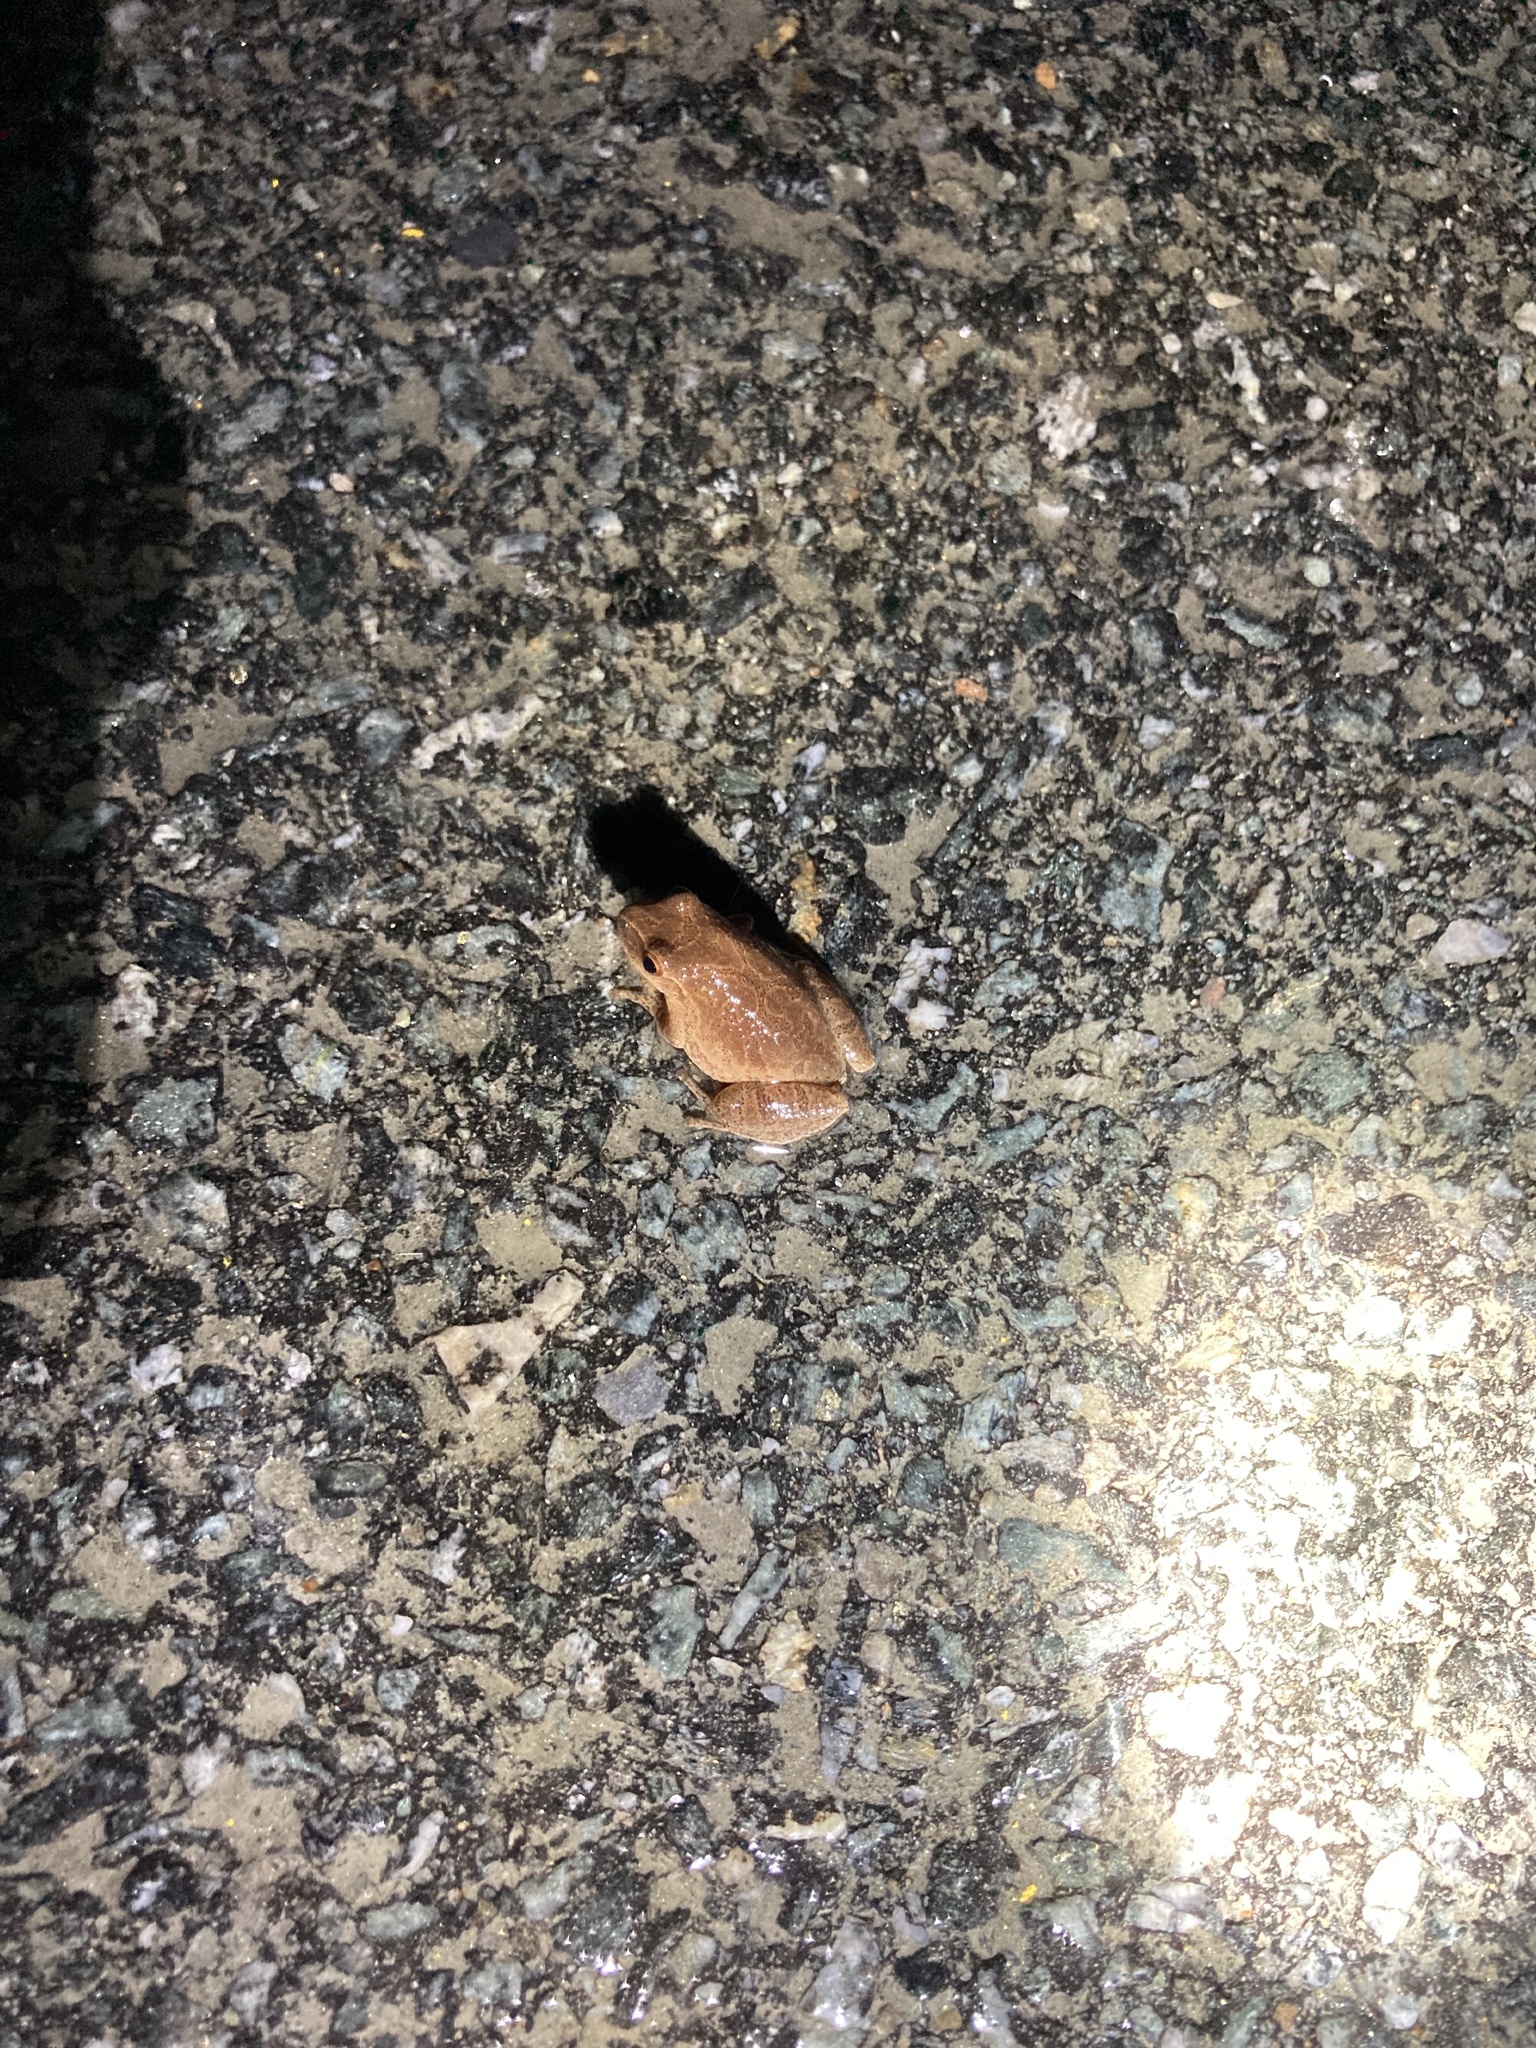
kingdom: Animalia
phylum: Chordata
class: Amphibia
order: Anura
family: Hylidae
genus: Pseudacris
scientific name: Pseudacris crucifer
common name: Spring peeper
